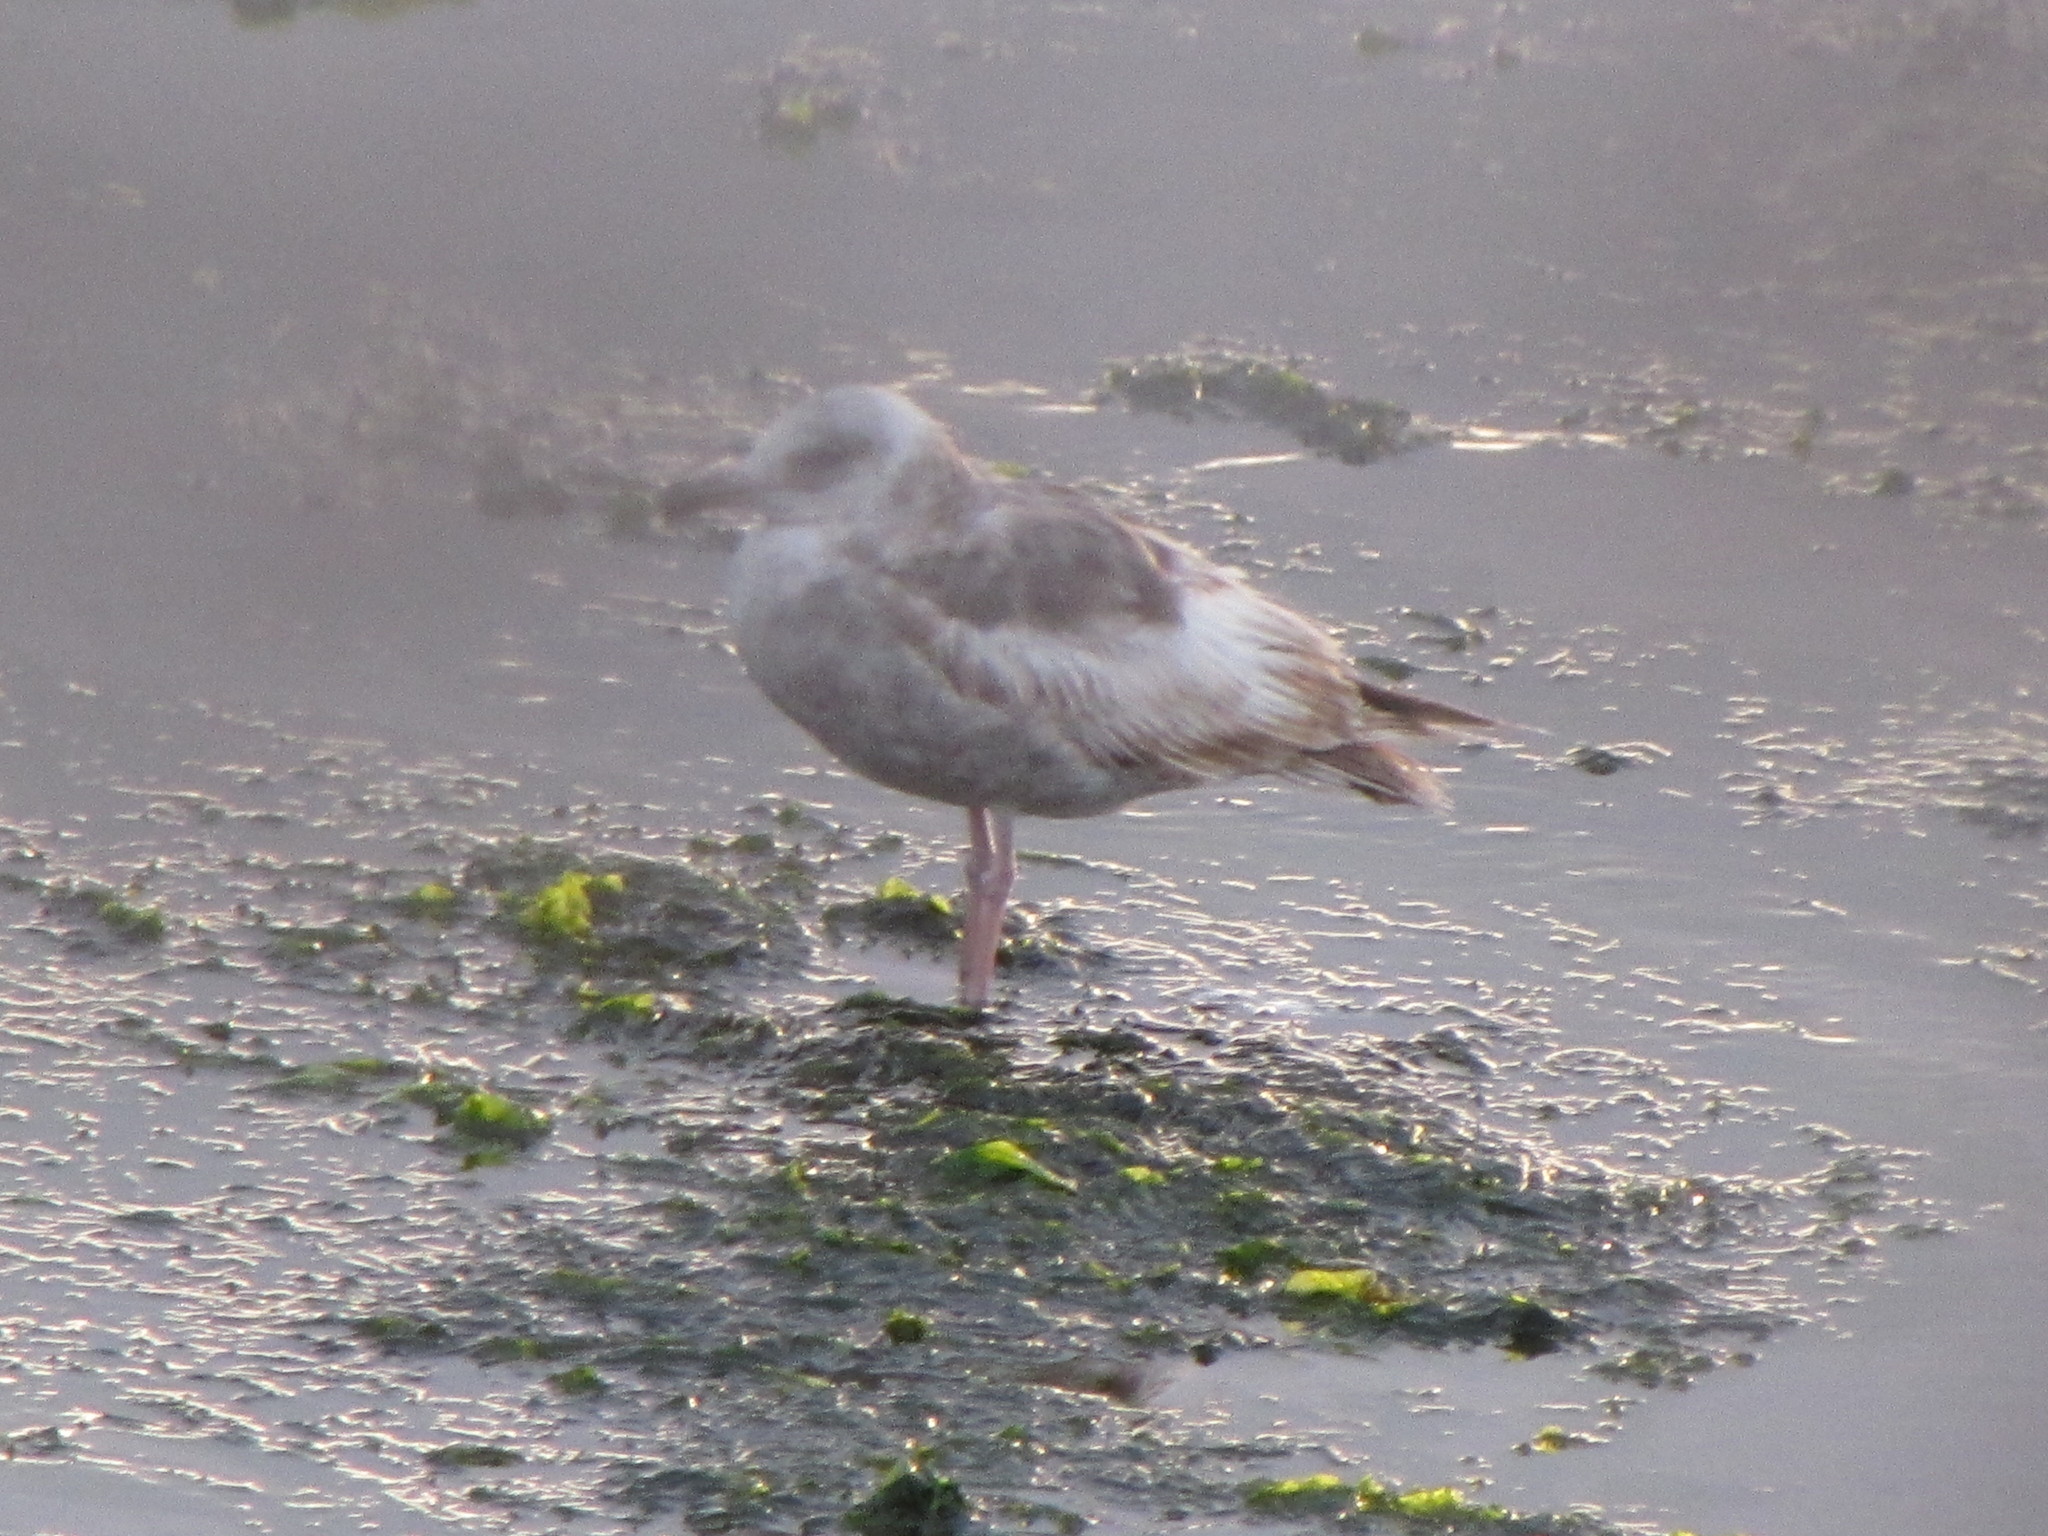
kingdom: Animalia
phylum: Chordata
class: Aves
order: Charadriiformes
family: Laridae
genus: Larus
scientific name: Larus occidentalis
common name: Western gull
